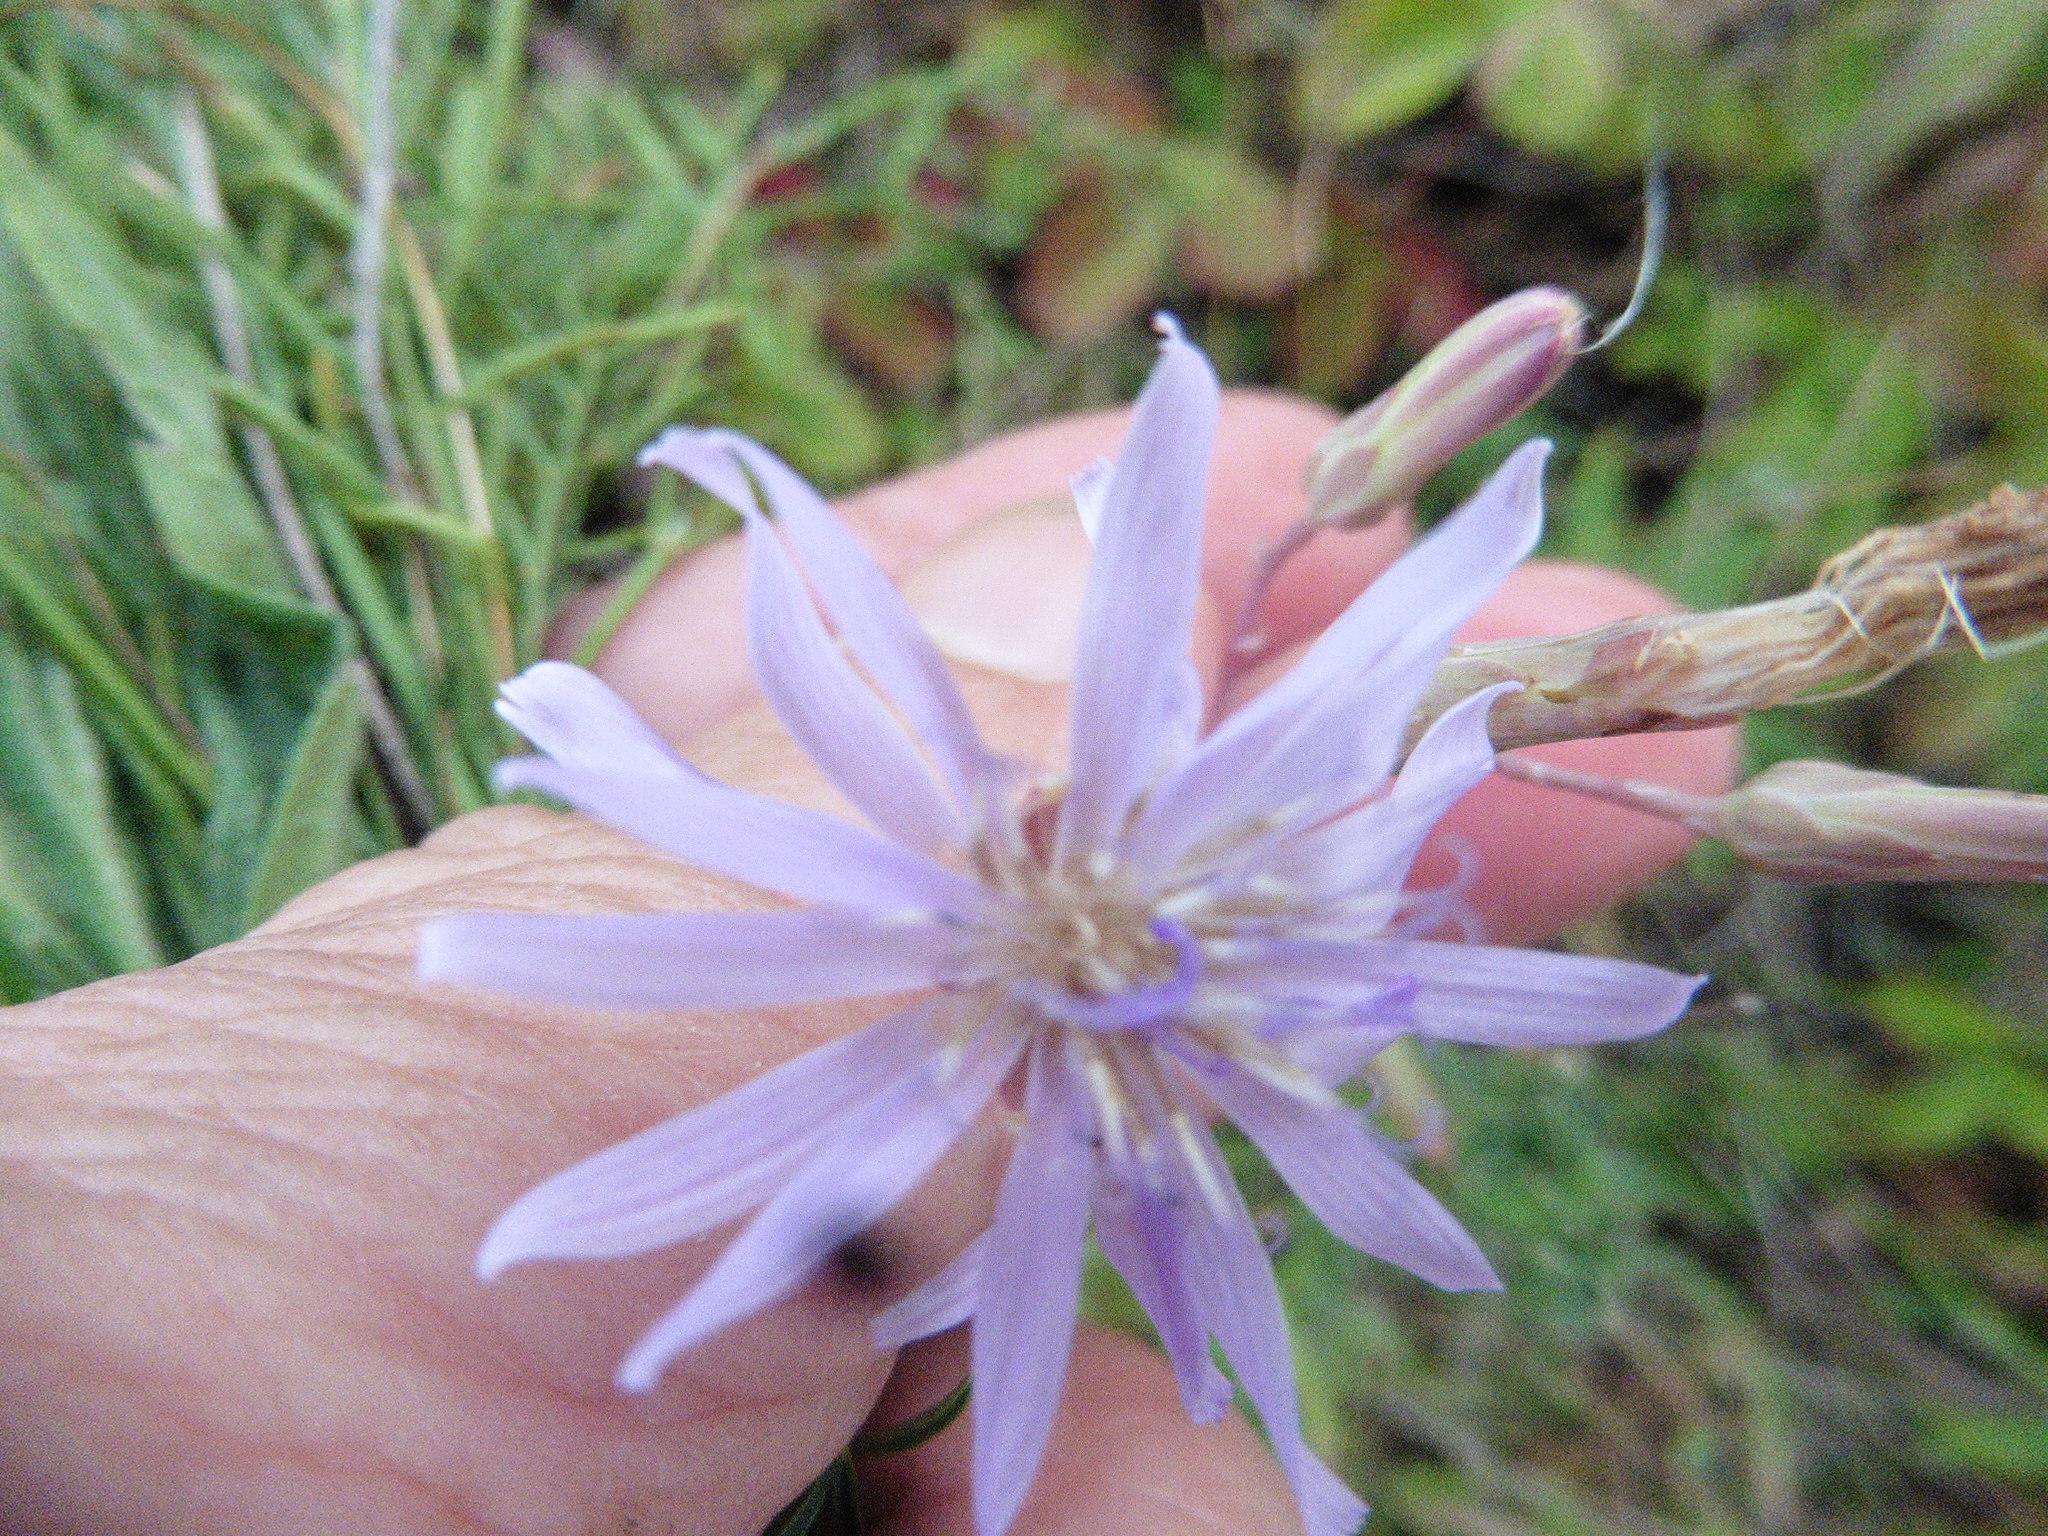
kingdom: Plantae
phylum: Tracheophyta
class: Magnoliopsida
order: Asterales
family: Asteraceae
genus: Lactuca
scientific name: Lactuca tatarica
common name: Blue lettuce
